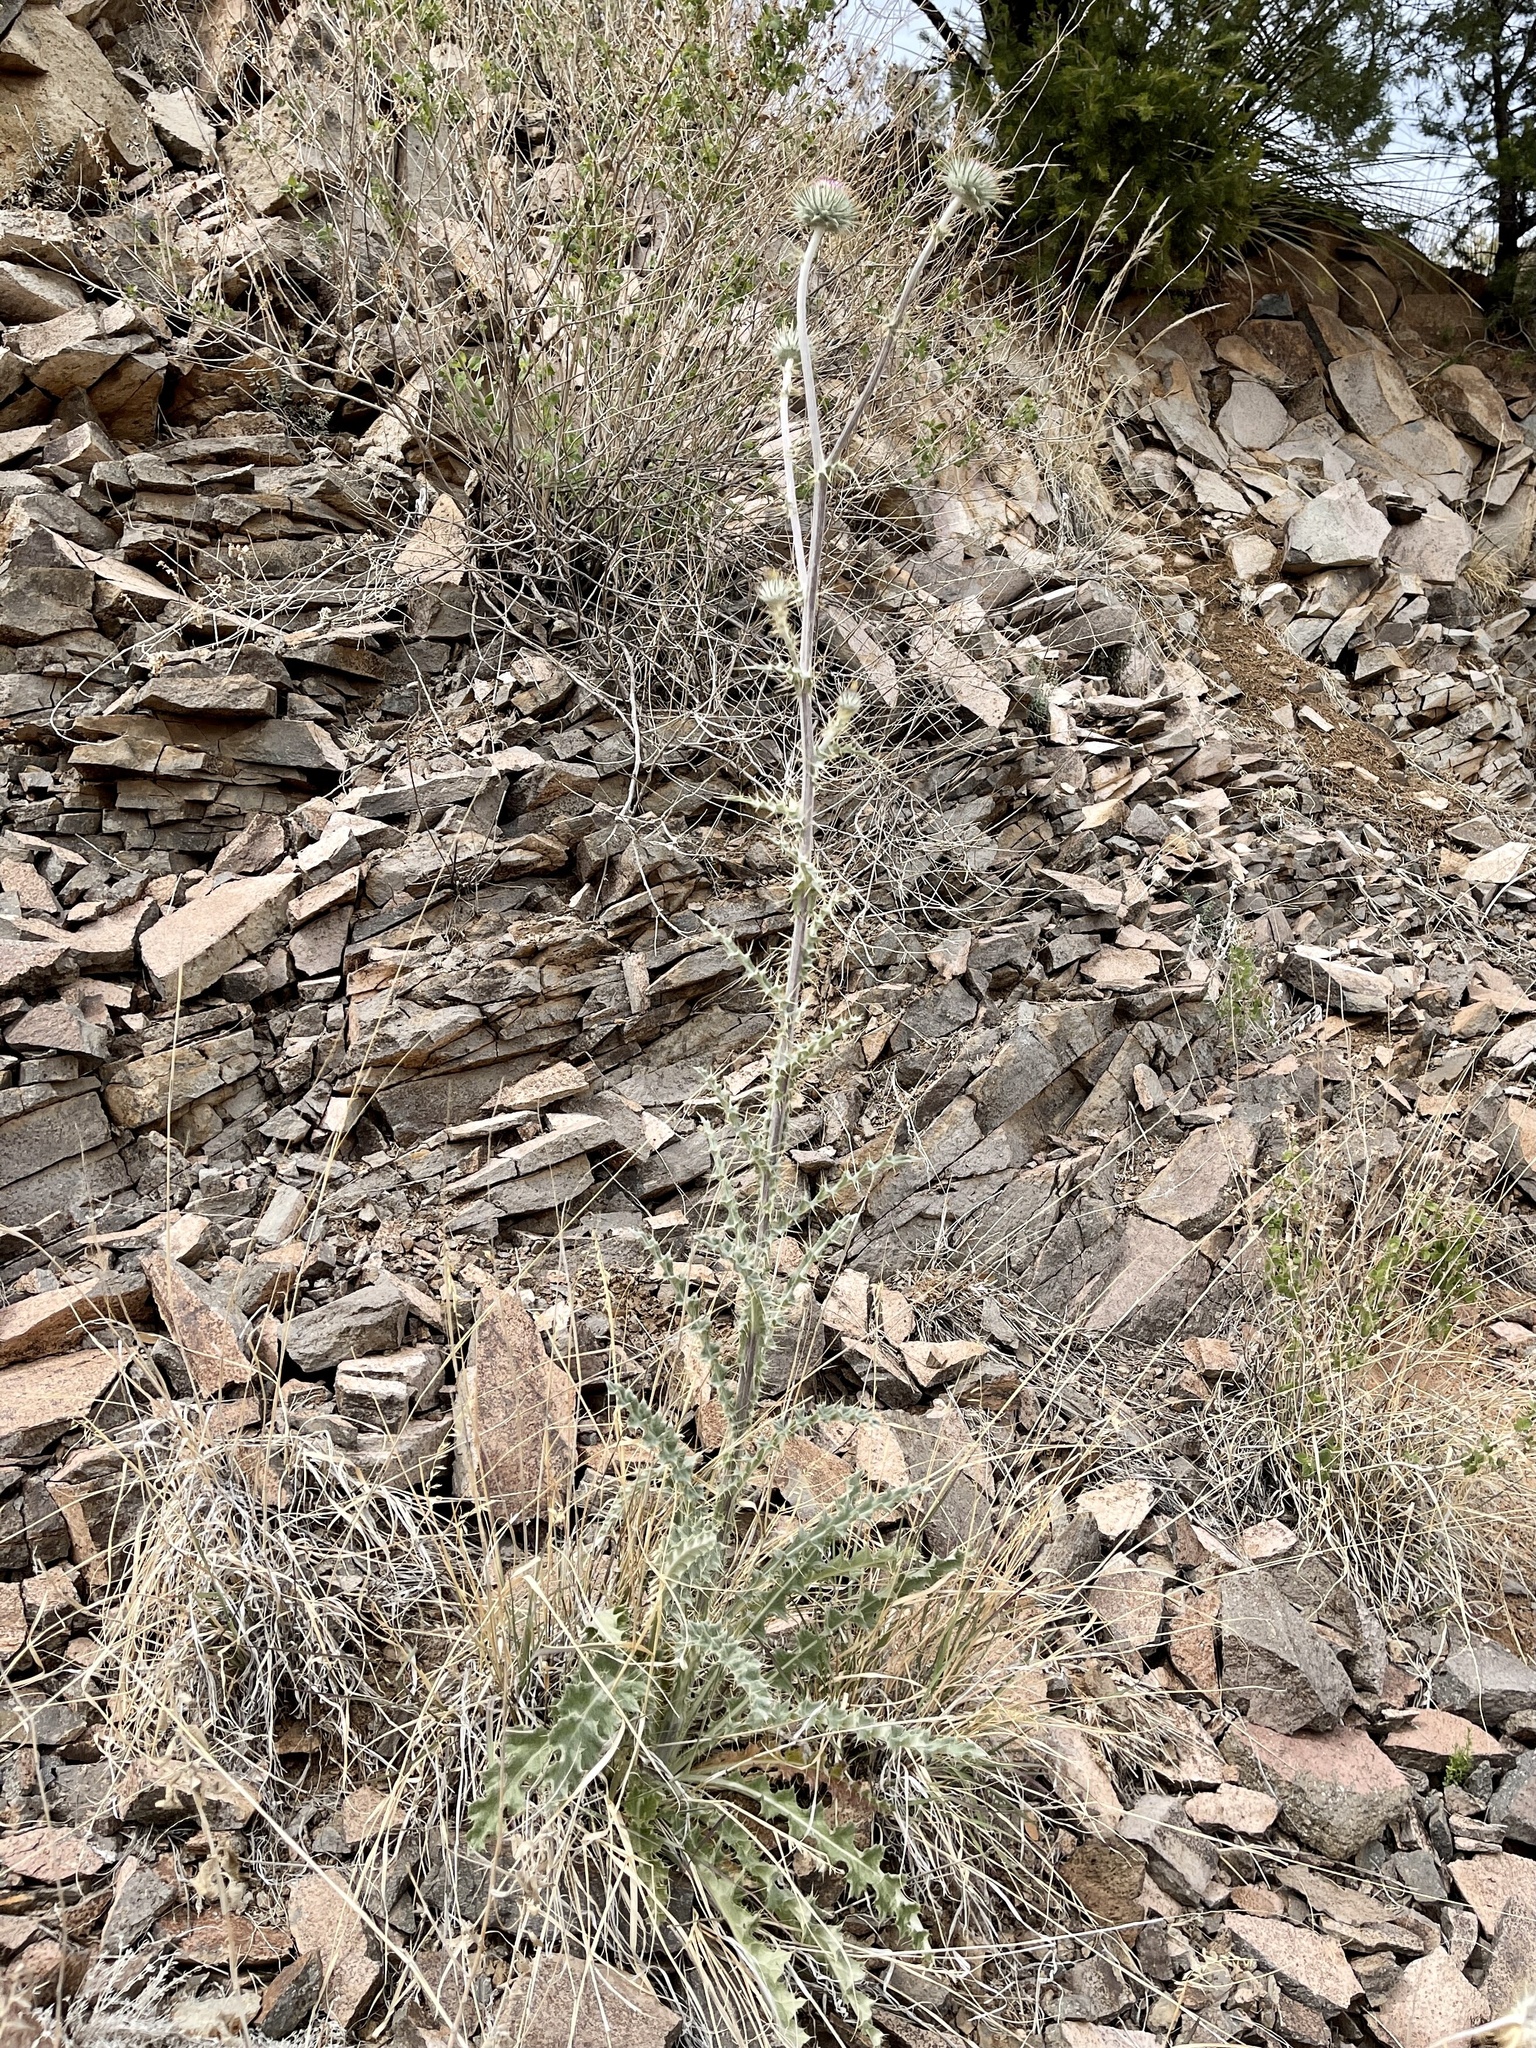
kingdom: Plantae
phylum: Tracheophyta
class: Magnoliopsida
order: Asterales
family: Asteraceae
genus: Cirsium
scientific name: Cirsium neomexicanum
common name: New mexico thistle
